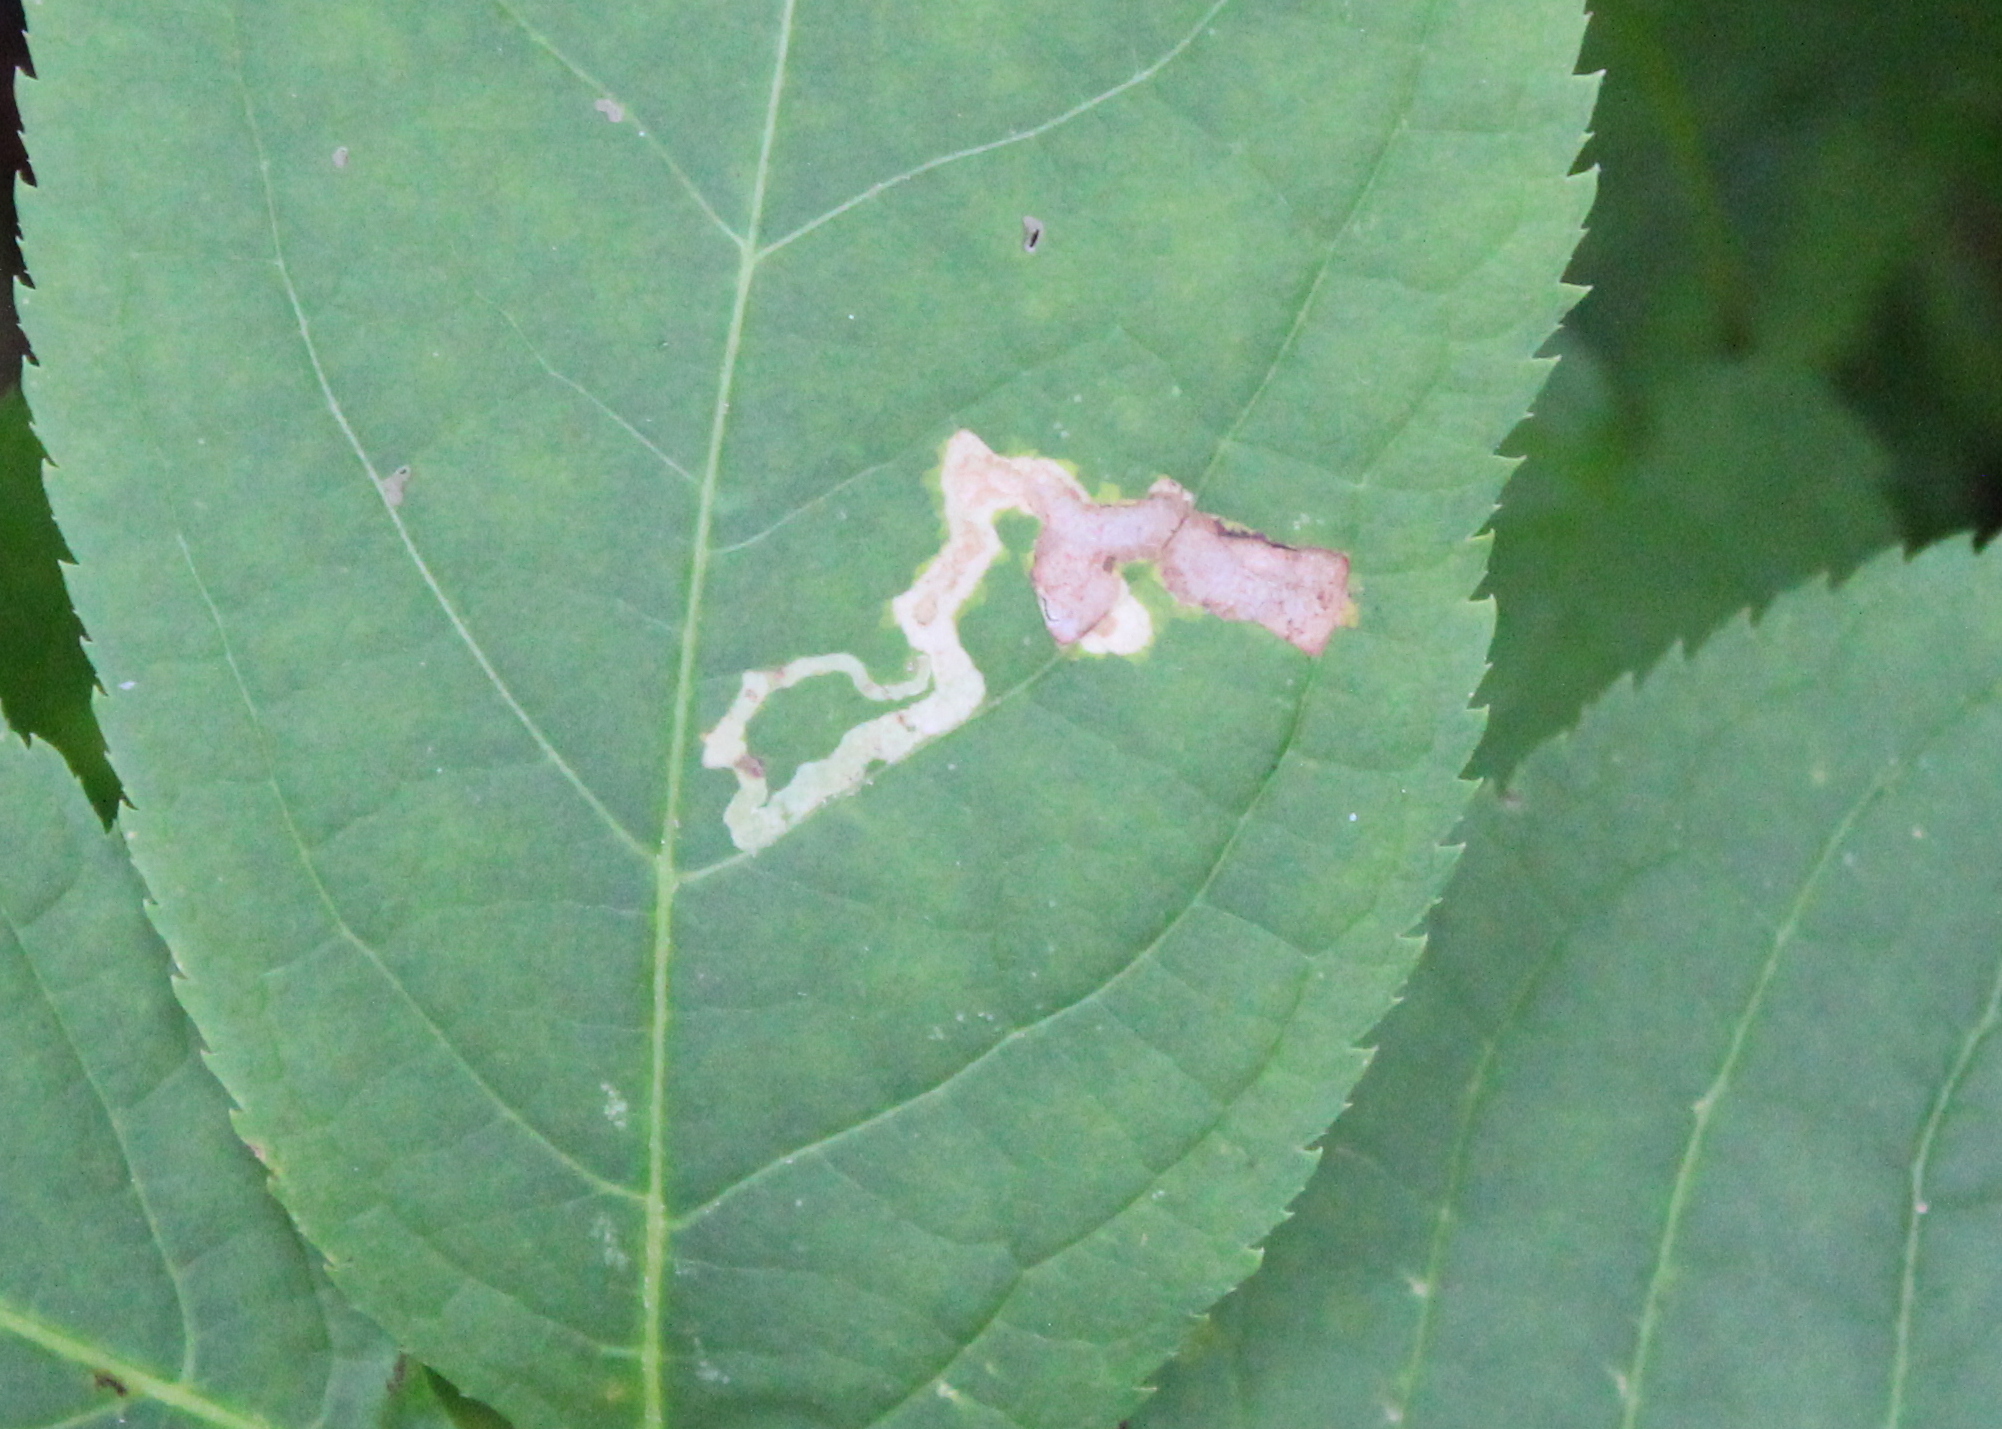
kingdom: Animalia
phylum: Arthropoda
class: Insecta
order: Diptera
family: Agromyzidae
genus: Phytomyza
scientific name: Phytomyza aralivora
